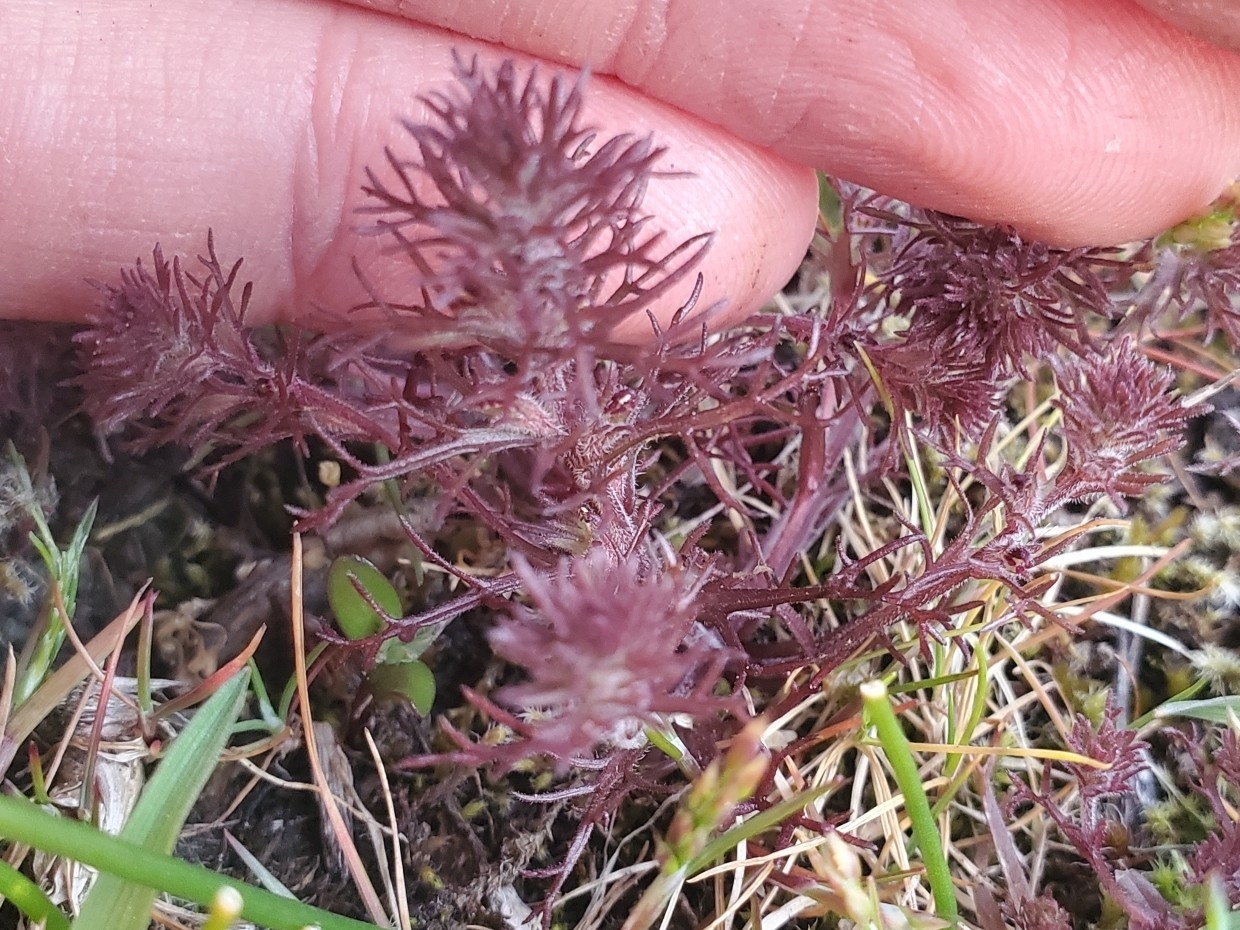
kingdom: Plantae
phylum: Tracheophyta
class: Magnoliopsida
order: Lamiales
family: Orobanchaceae
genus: Triphysaria
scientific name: Triphysaria pusilla
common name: Dwarf false owl-clover
